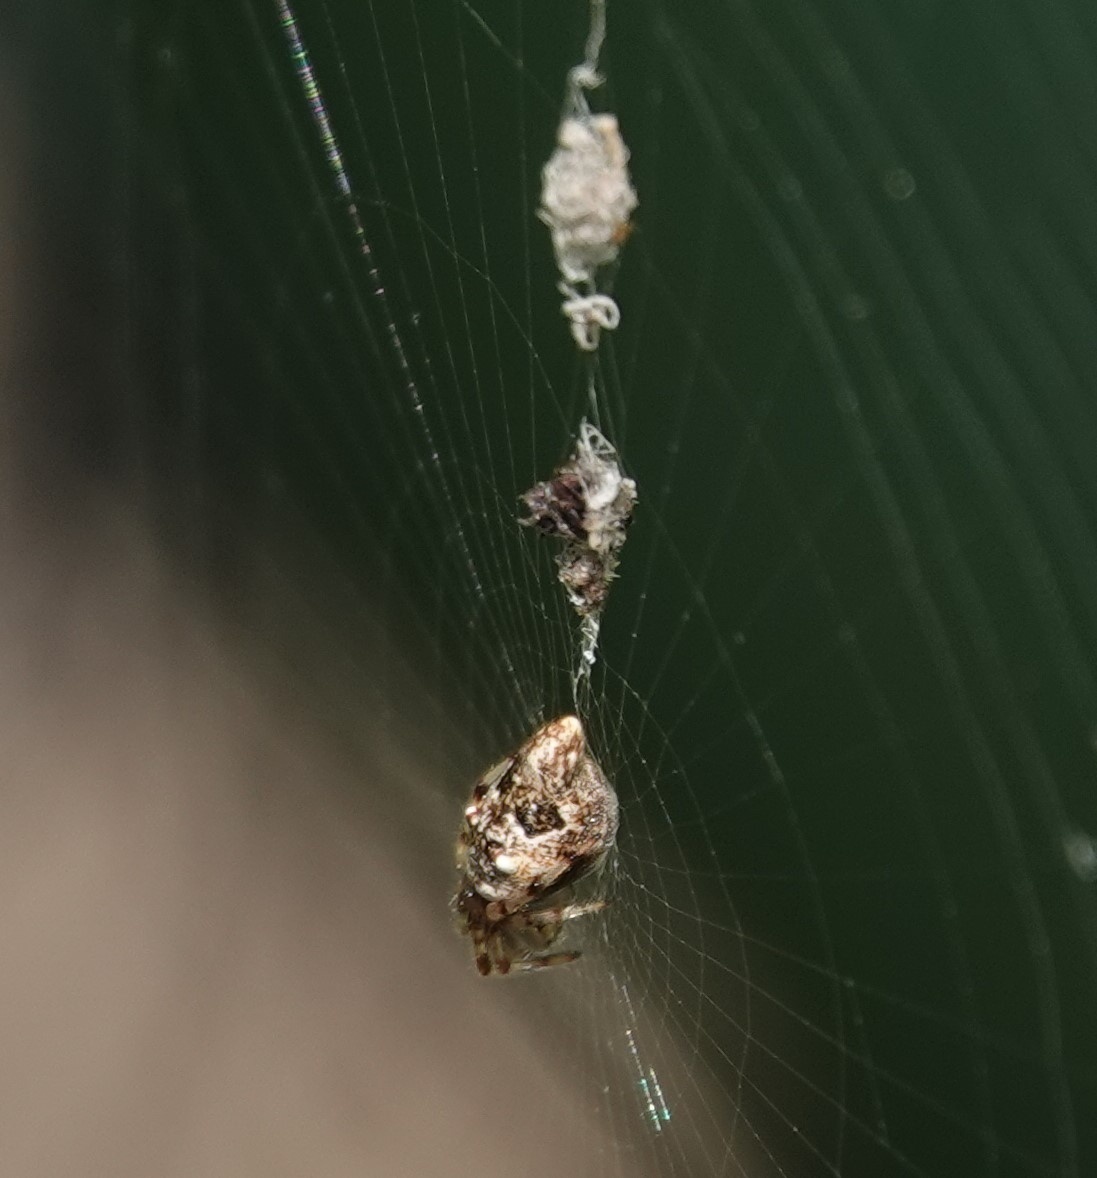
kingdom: Animalia
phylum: Arthropoda
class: Arachnida
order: Araneae
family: Araneidae
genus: Cyclosa
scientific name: Cyclosa turbinata
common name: Orb weavers
